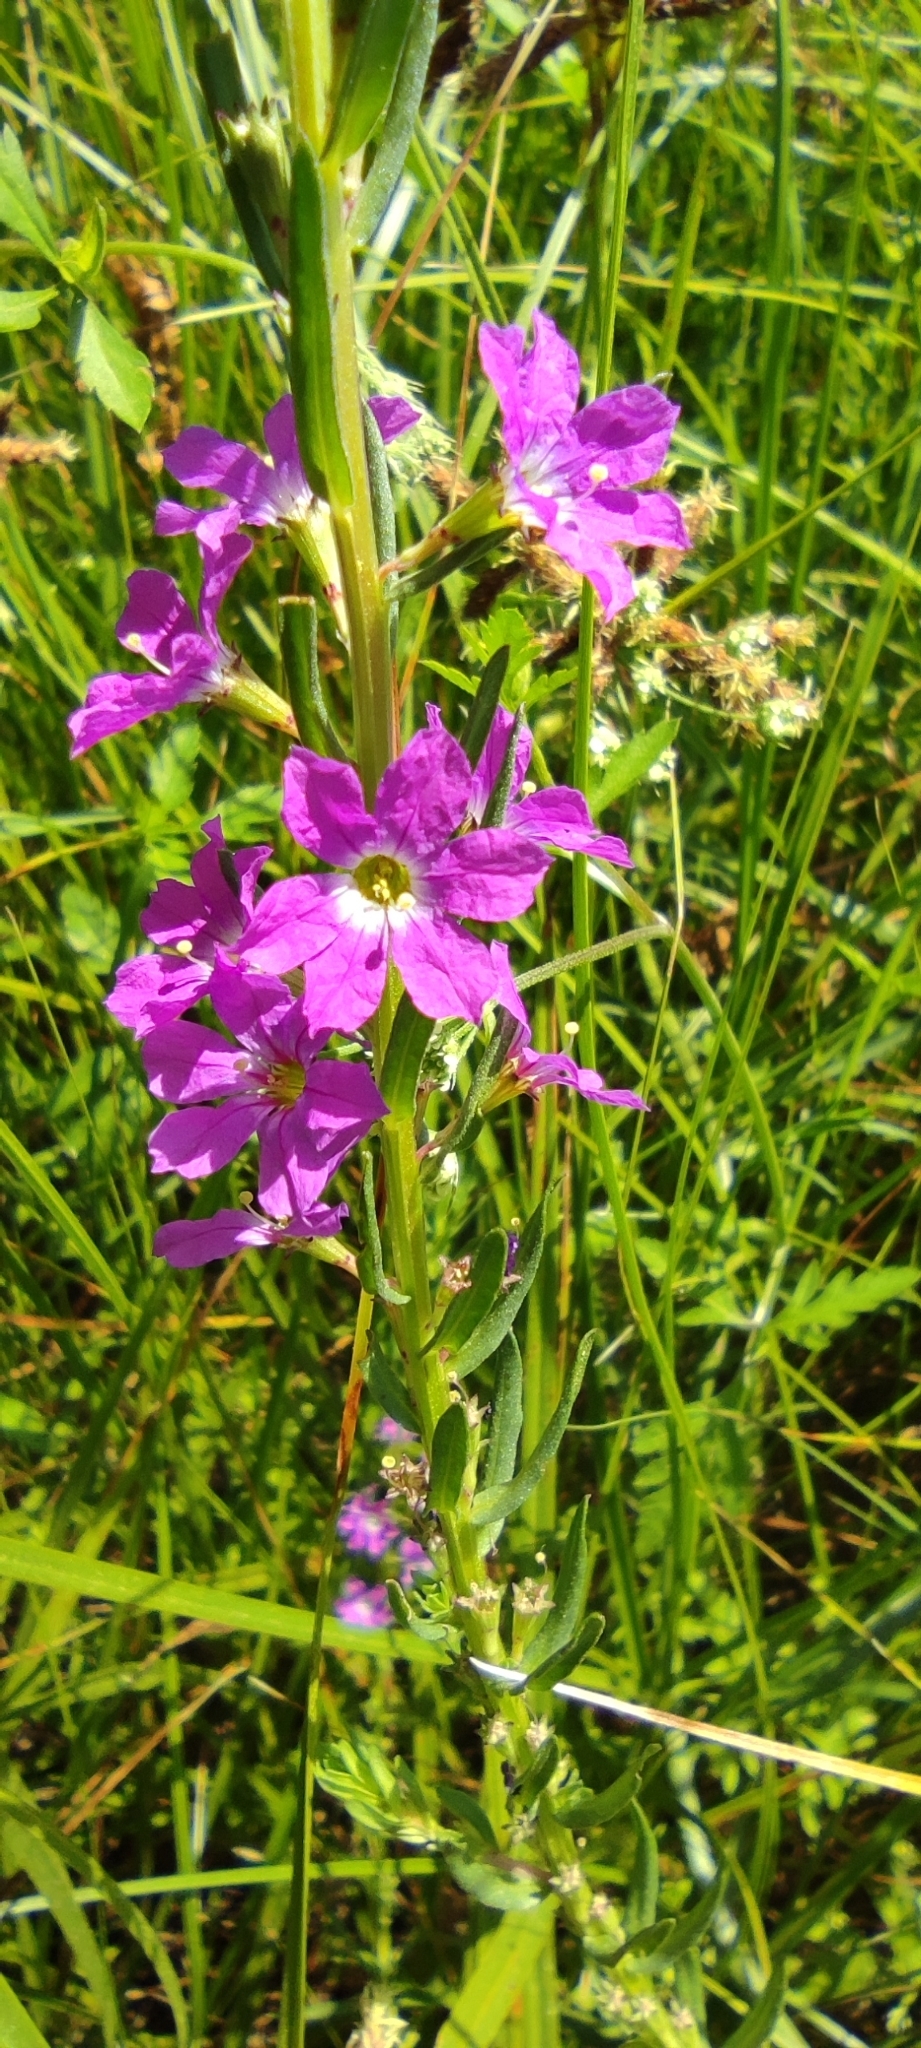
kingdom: Plantae
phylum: Tracheophyta
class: Magnoliopsida
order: Myrtales
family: Lythraceae
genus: Lythrum
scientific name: Lythrum junceum
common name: False grass-poly
